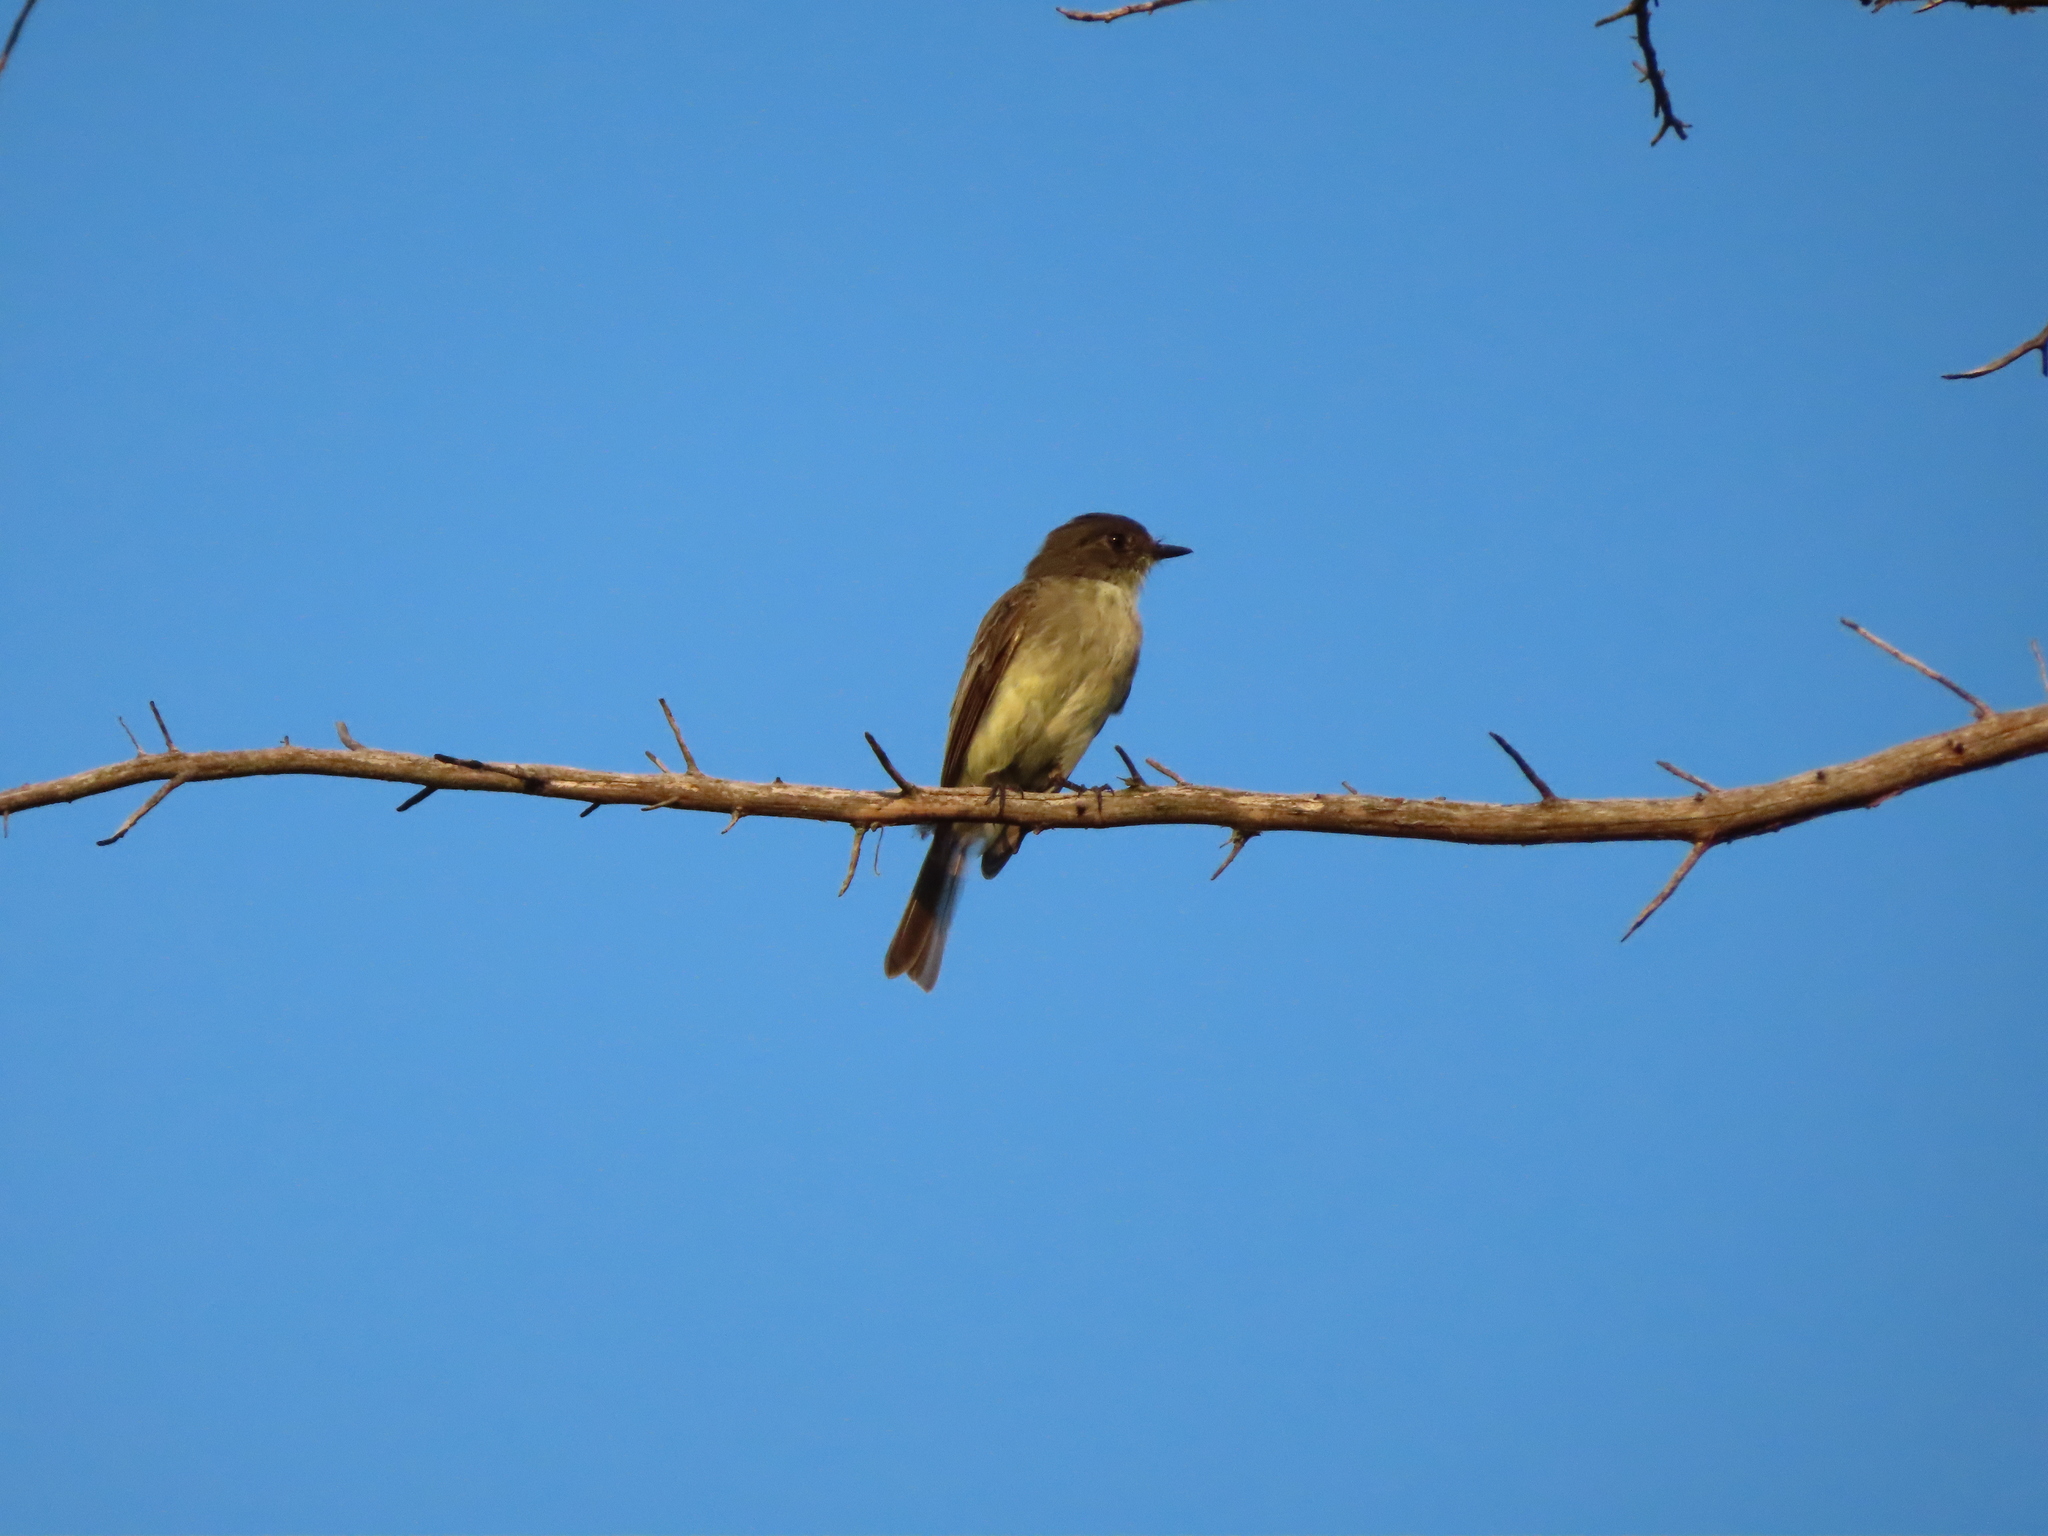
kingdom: Animalia
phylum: Chordata
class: Aves
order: Passeriformes
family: Tyrannidae
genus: Sayornis
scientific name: Sayornis phoebe
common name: Eastern phoebe
